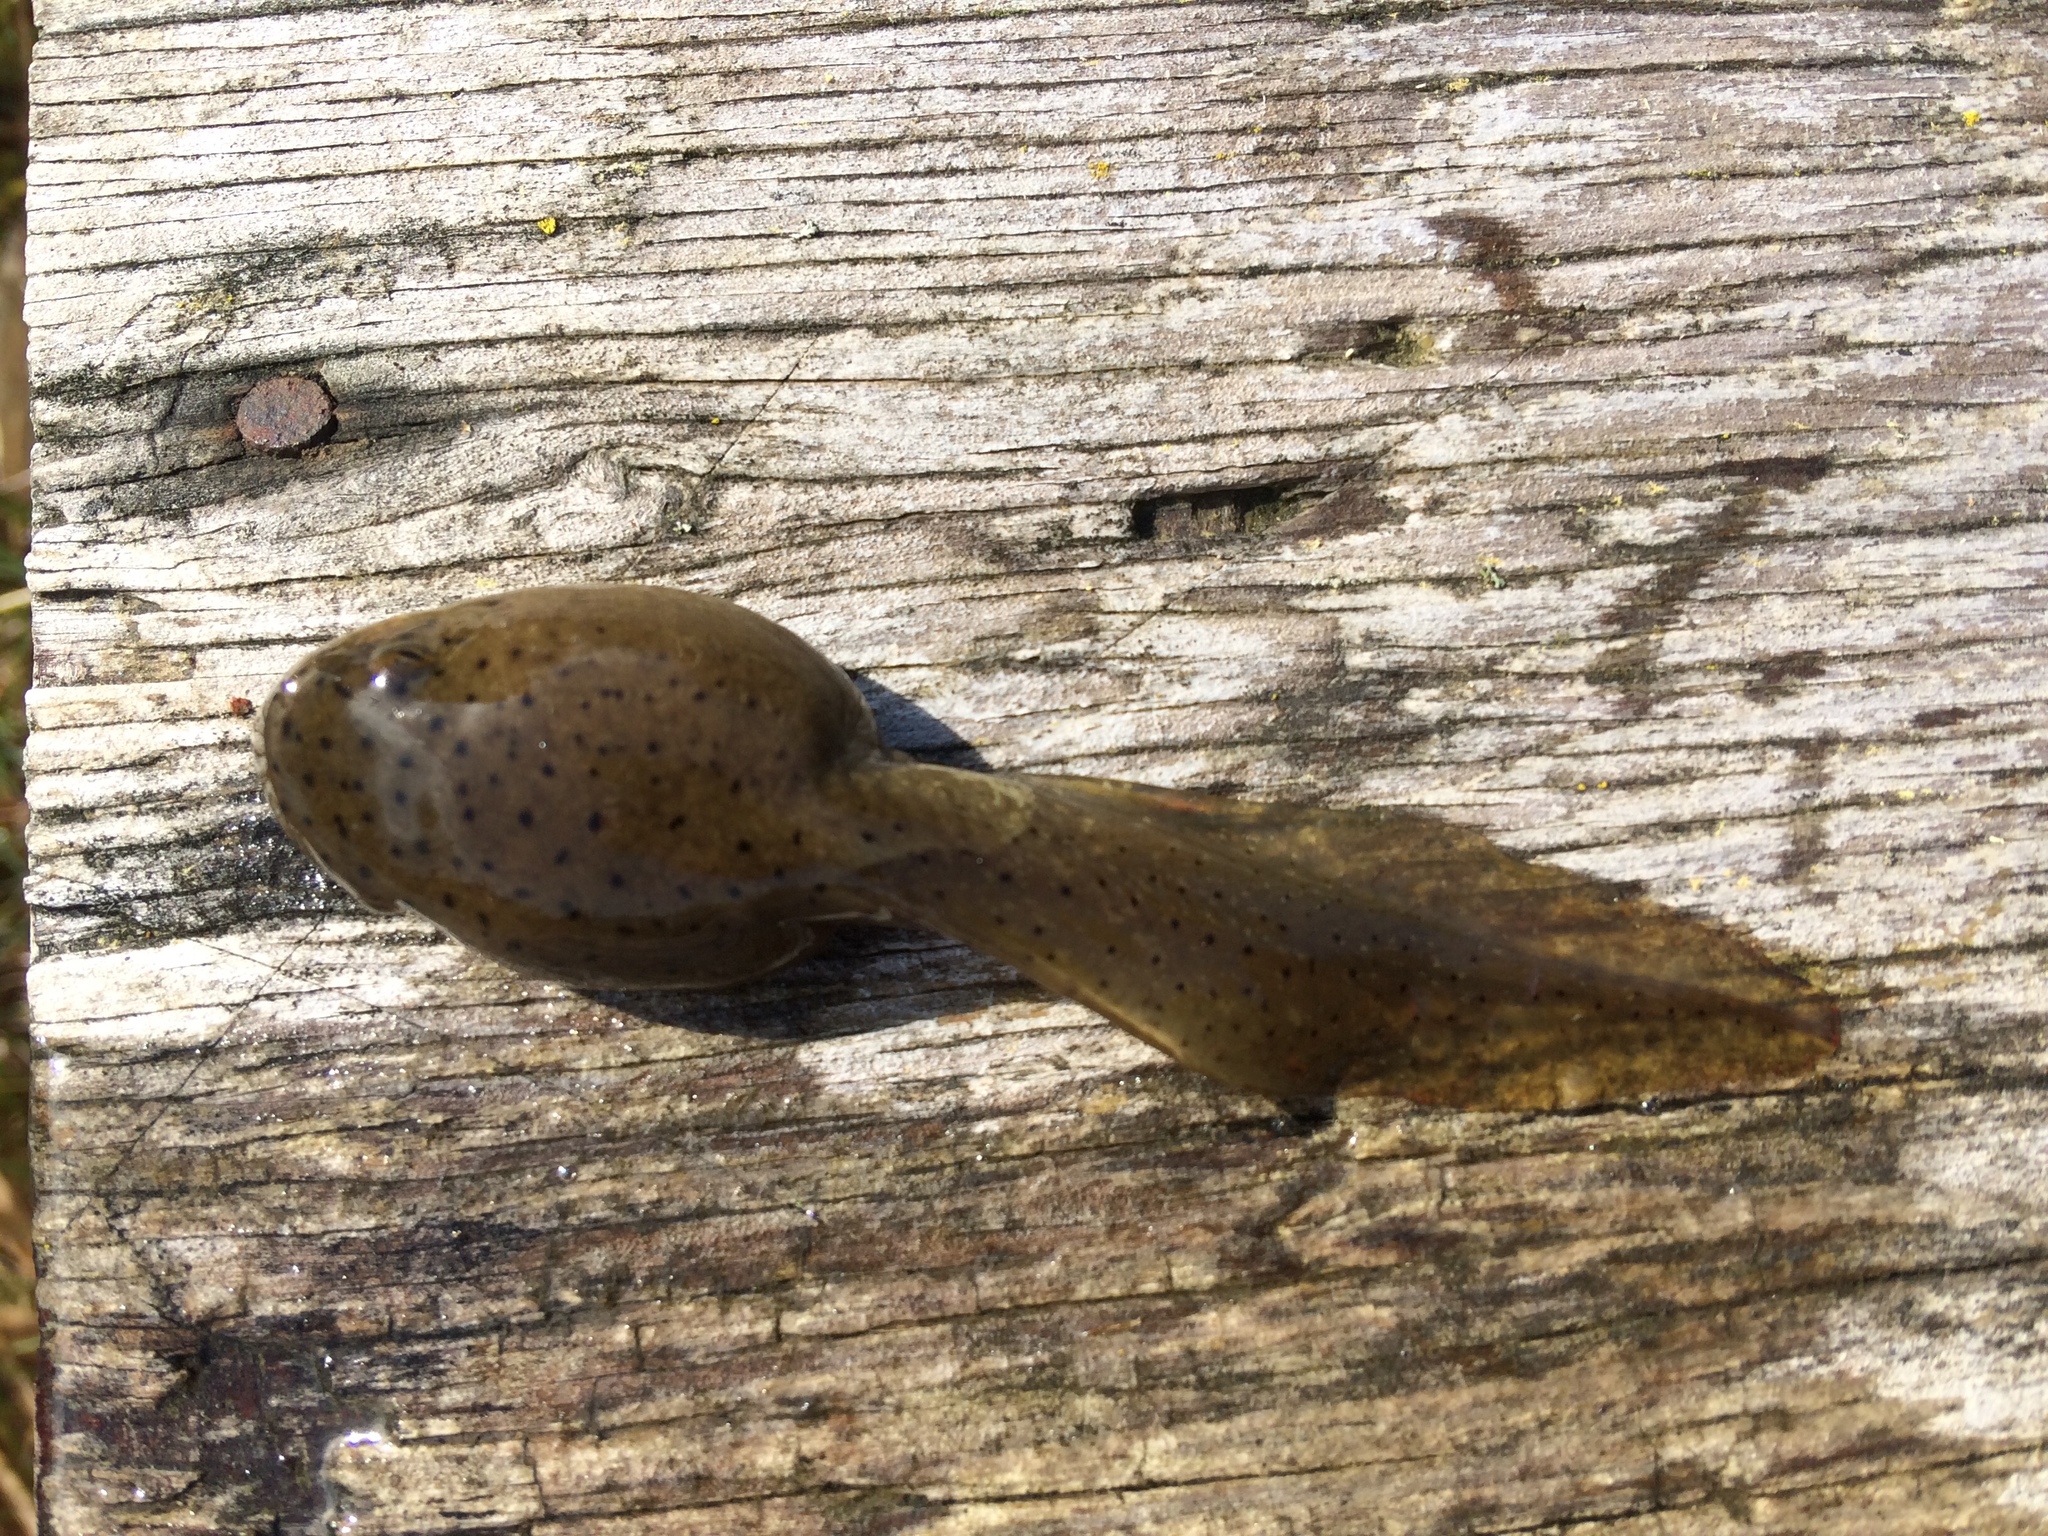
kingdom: Animalia
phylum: Chordata
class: Amphibia
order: Anura
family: Ranidae
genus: Lithobates
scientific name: Lithobates catesbeianus
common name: American bullfrog
